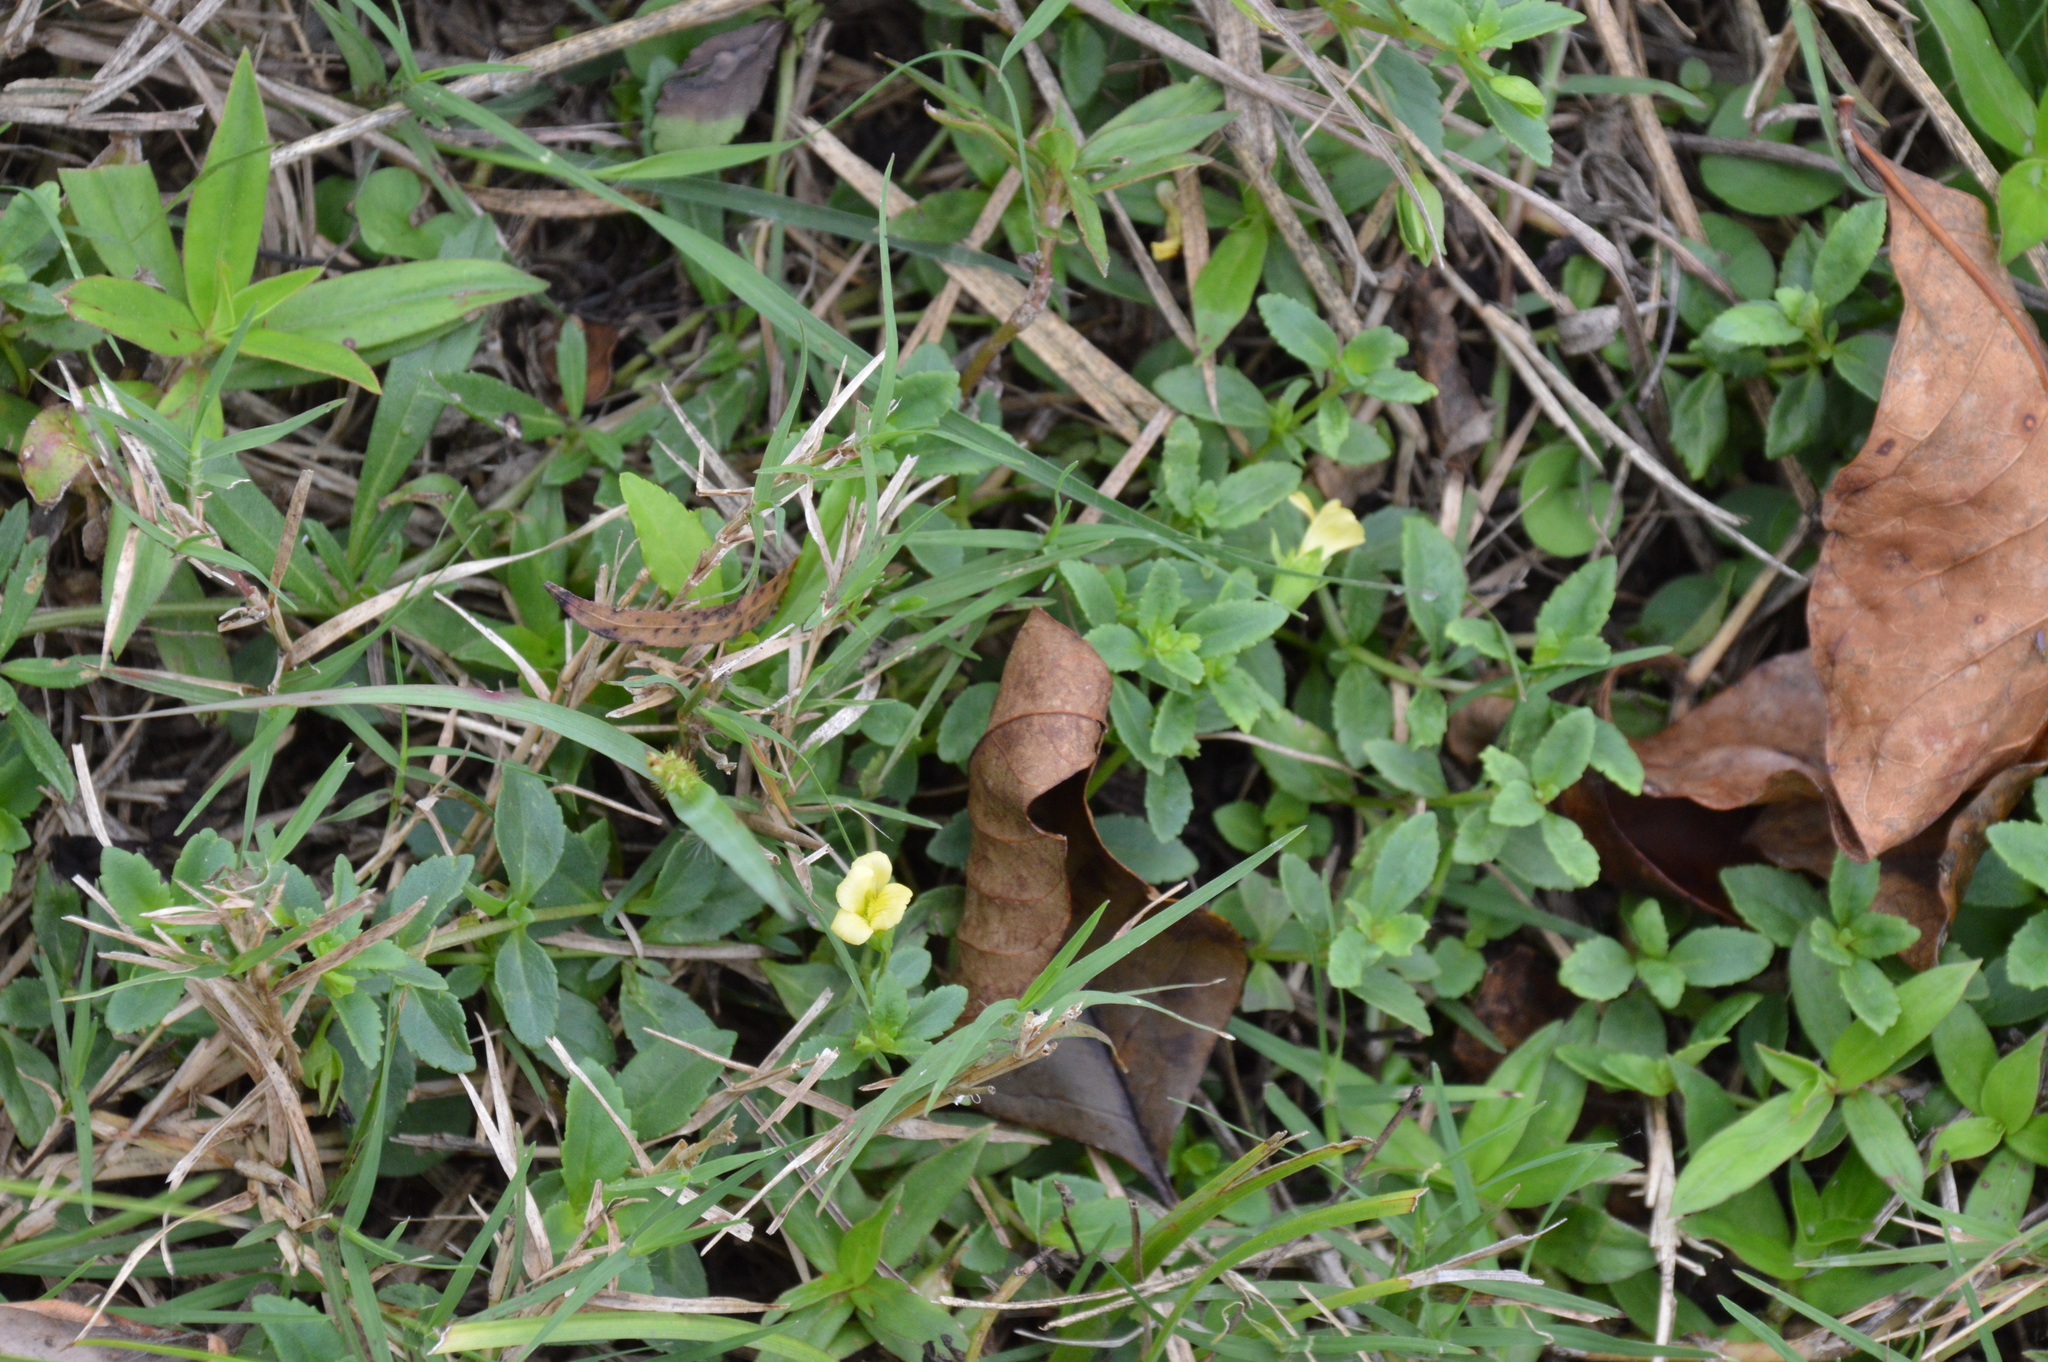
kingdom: Plantae
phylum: Tracheophyta
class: Magnoliopsida
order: Lamiales
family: Plantaginaceae
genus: Mecardonia
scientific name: Mecardonia procumbens
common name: Baby jump-up
